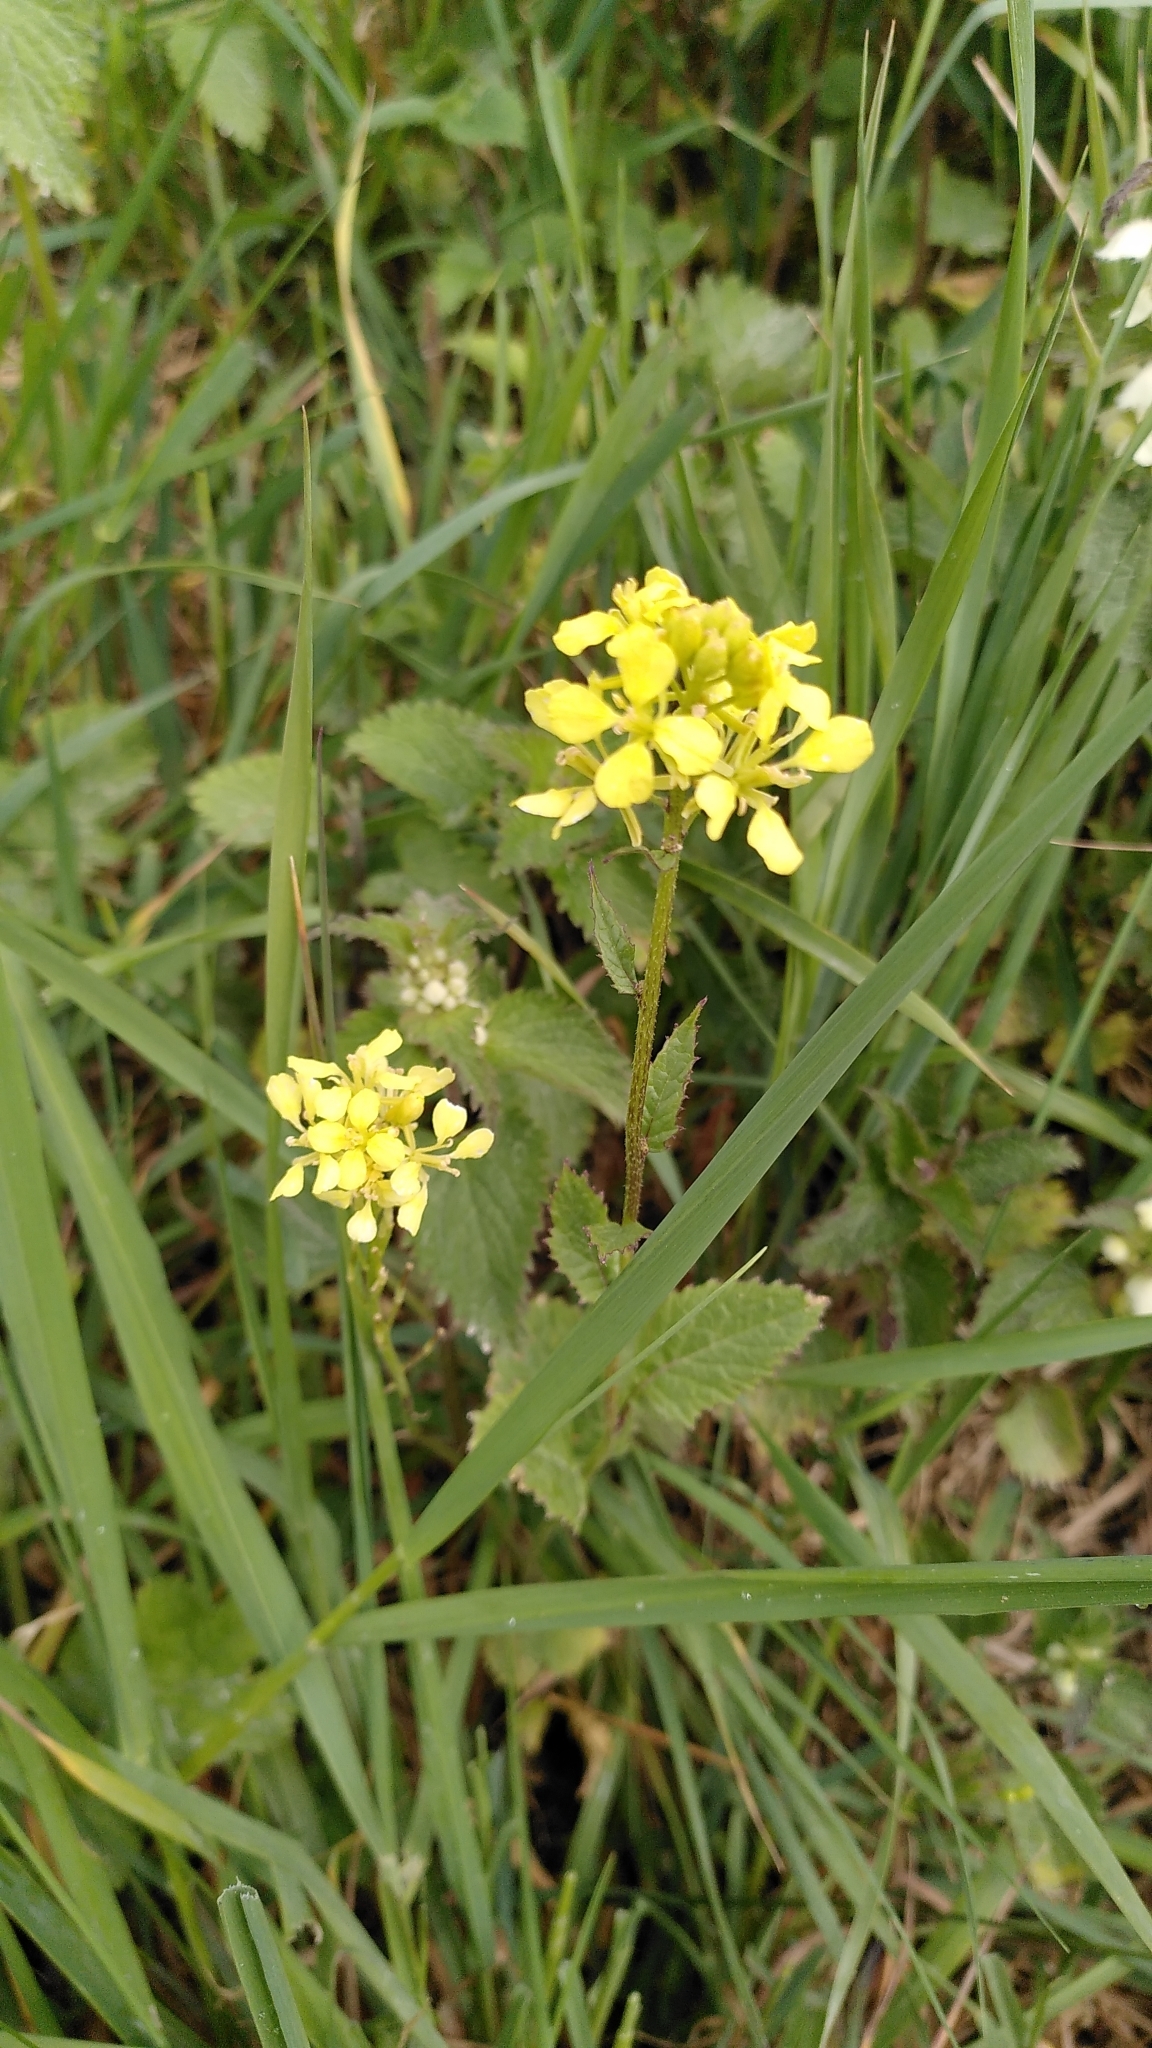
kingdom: Plantae
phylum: Tracheophyta
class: Magnoliopsida
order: Brassicales
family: Brassicaceae
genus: Sinapis
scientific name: Sinapis arvensis
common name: Charlock
